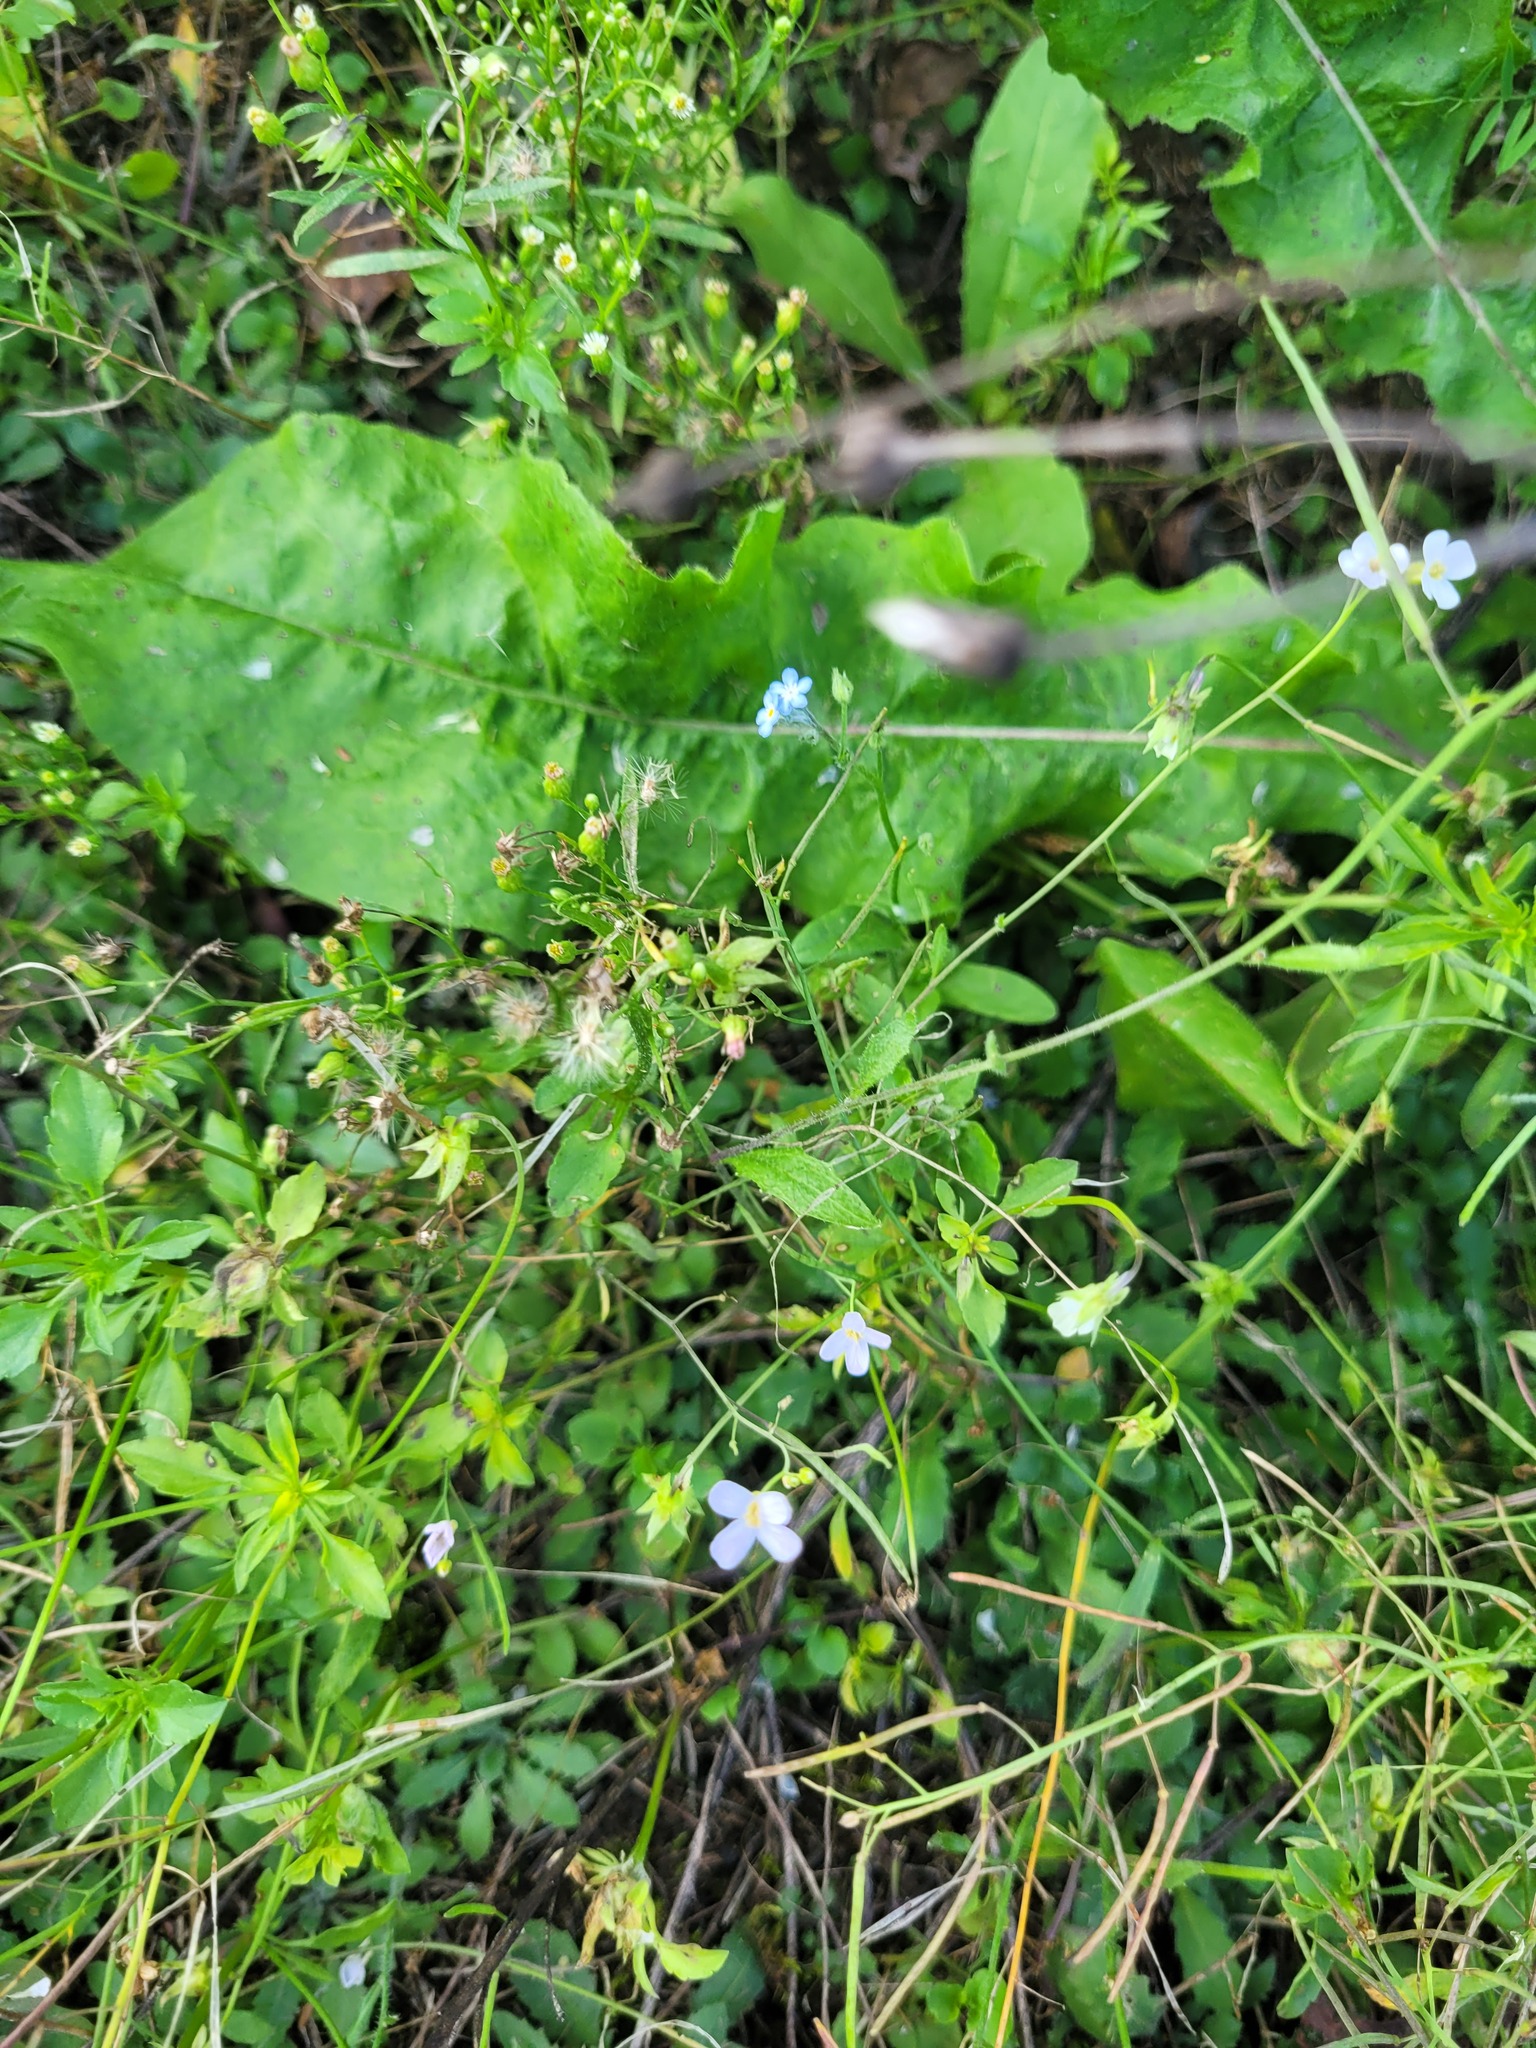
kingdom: Plantae
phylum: Tracheophyta
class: Magnoliopsida
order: Brassicales
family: Brassicaceae
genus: Arabidopsis
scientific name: Arabidopsis arenosa
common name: Sand rock-cress
